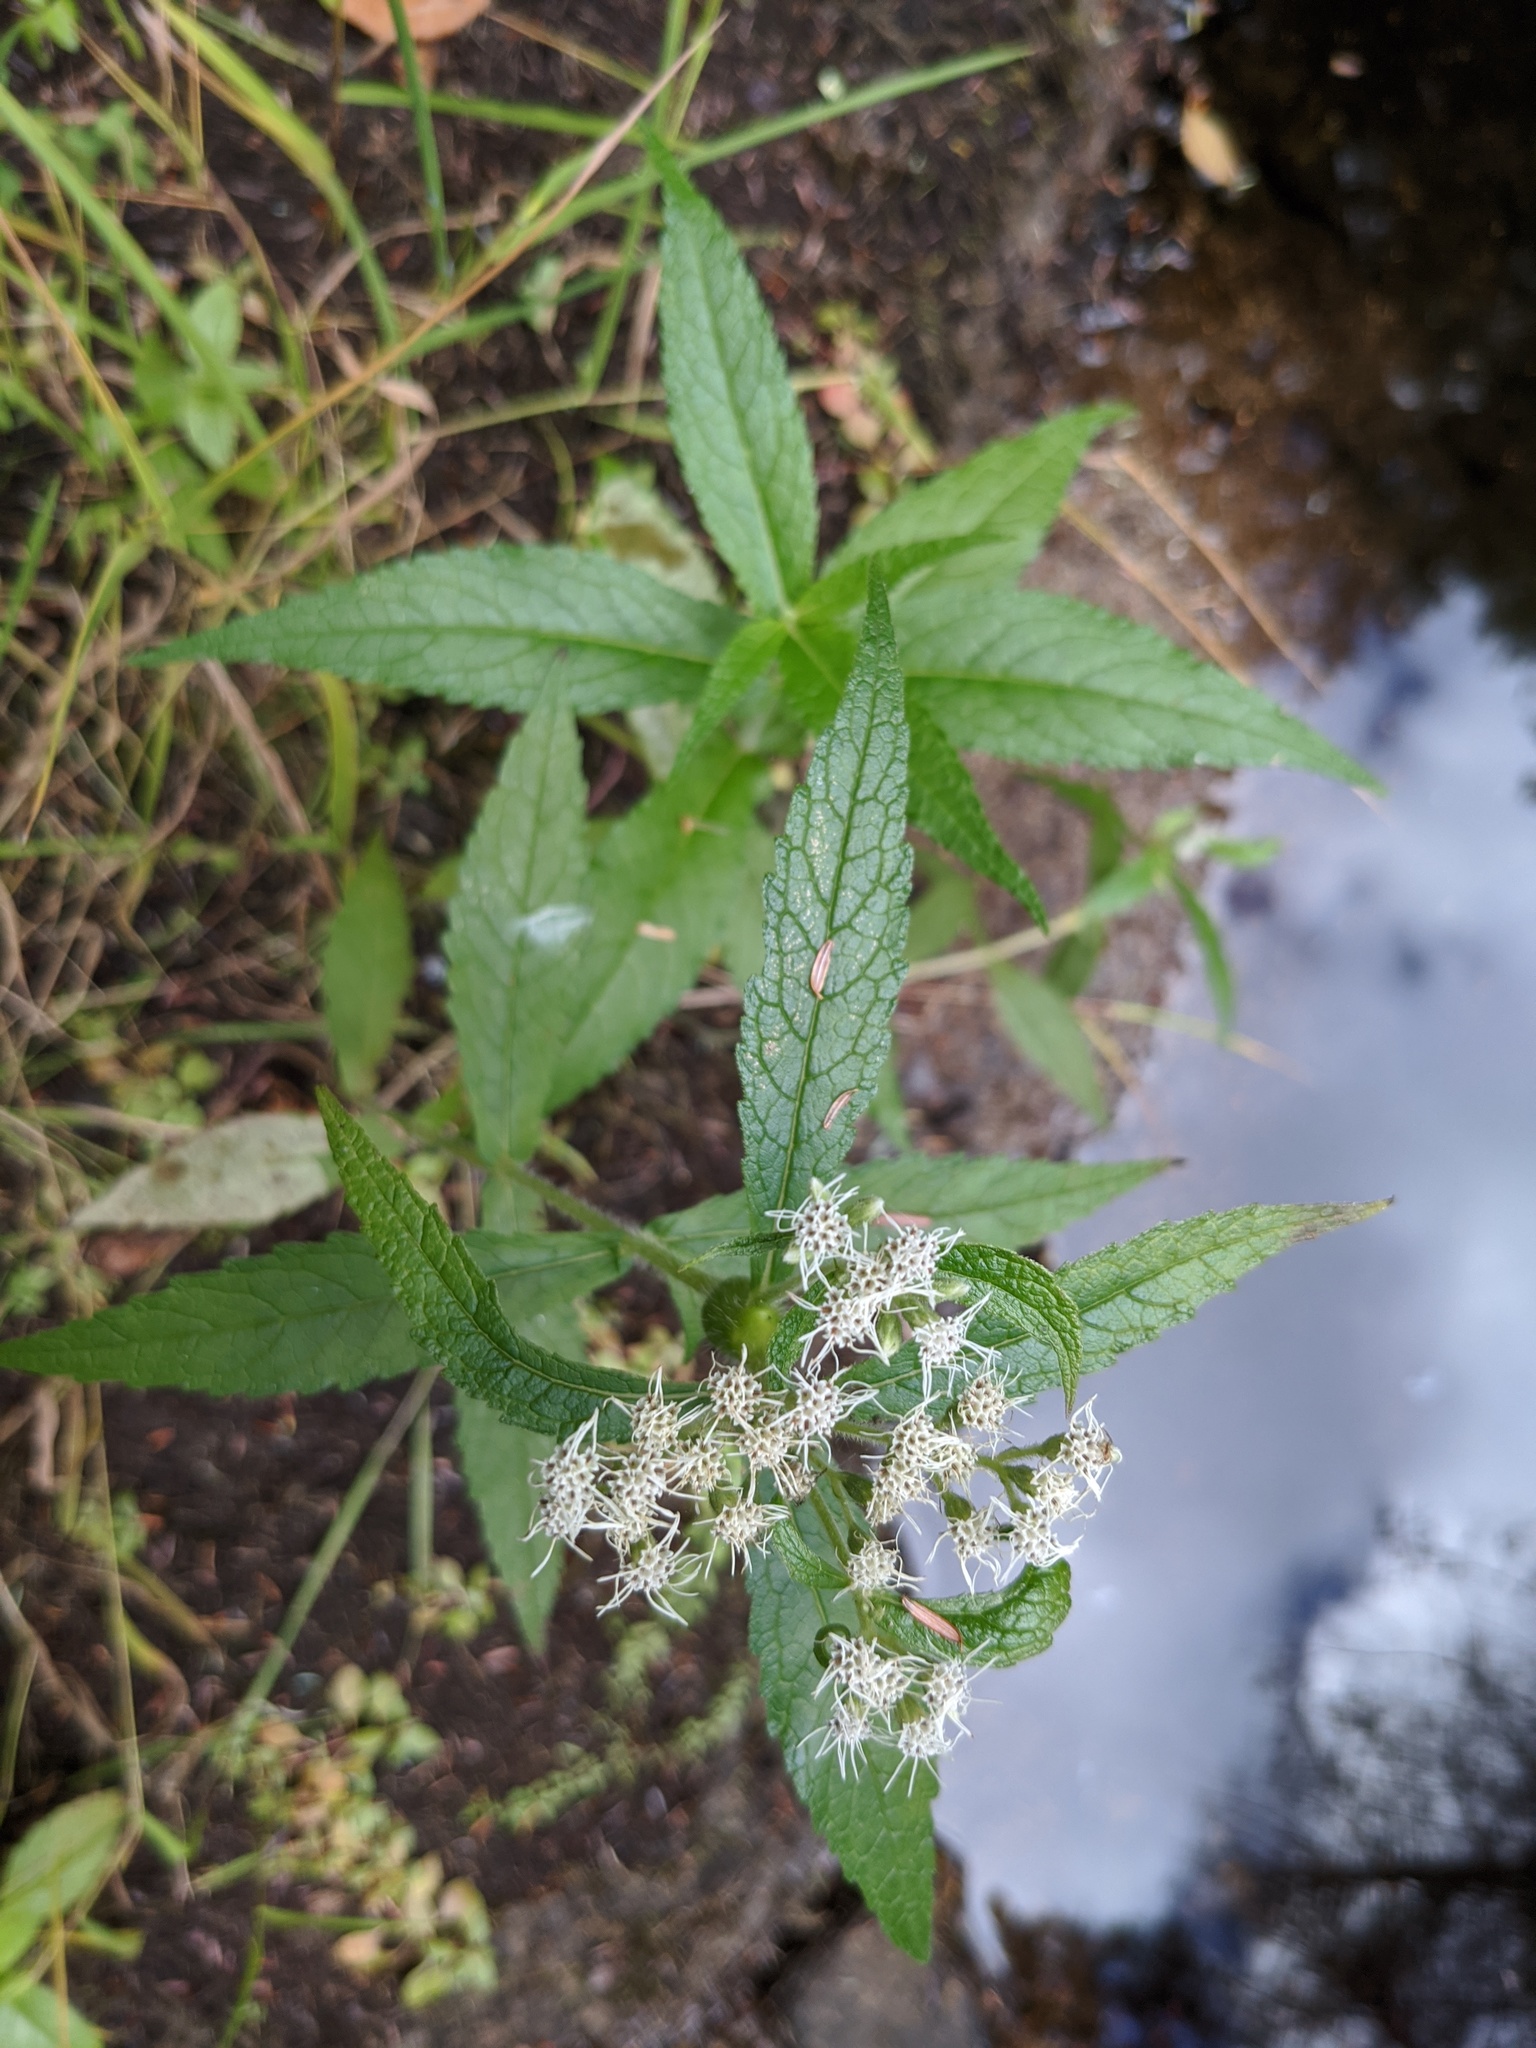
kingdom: Plantae
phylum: Tracheophyta
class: Magnoliopsida
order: Asterales
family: Asteraceae
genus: Eupatorium
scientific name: Eupatorium perfoliatum
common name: Boneset
